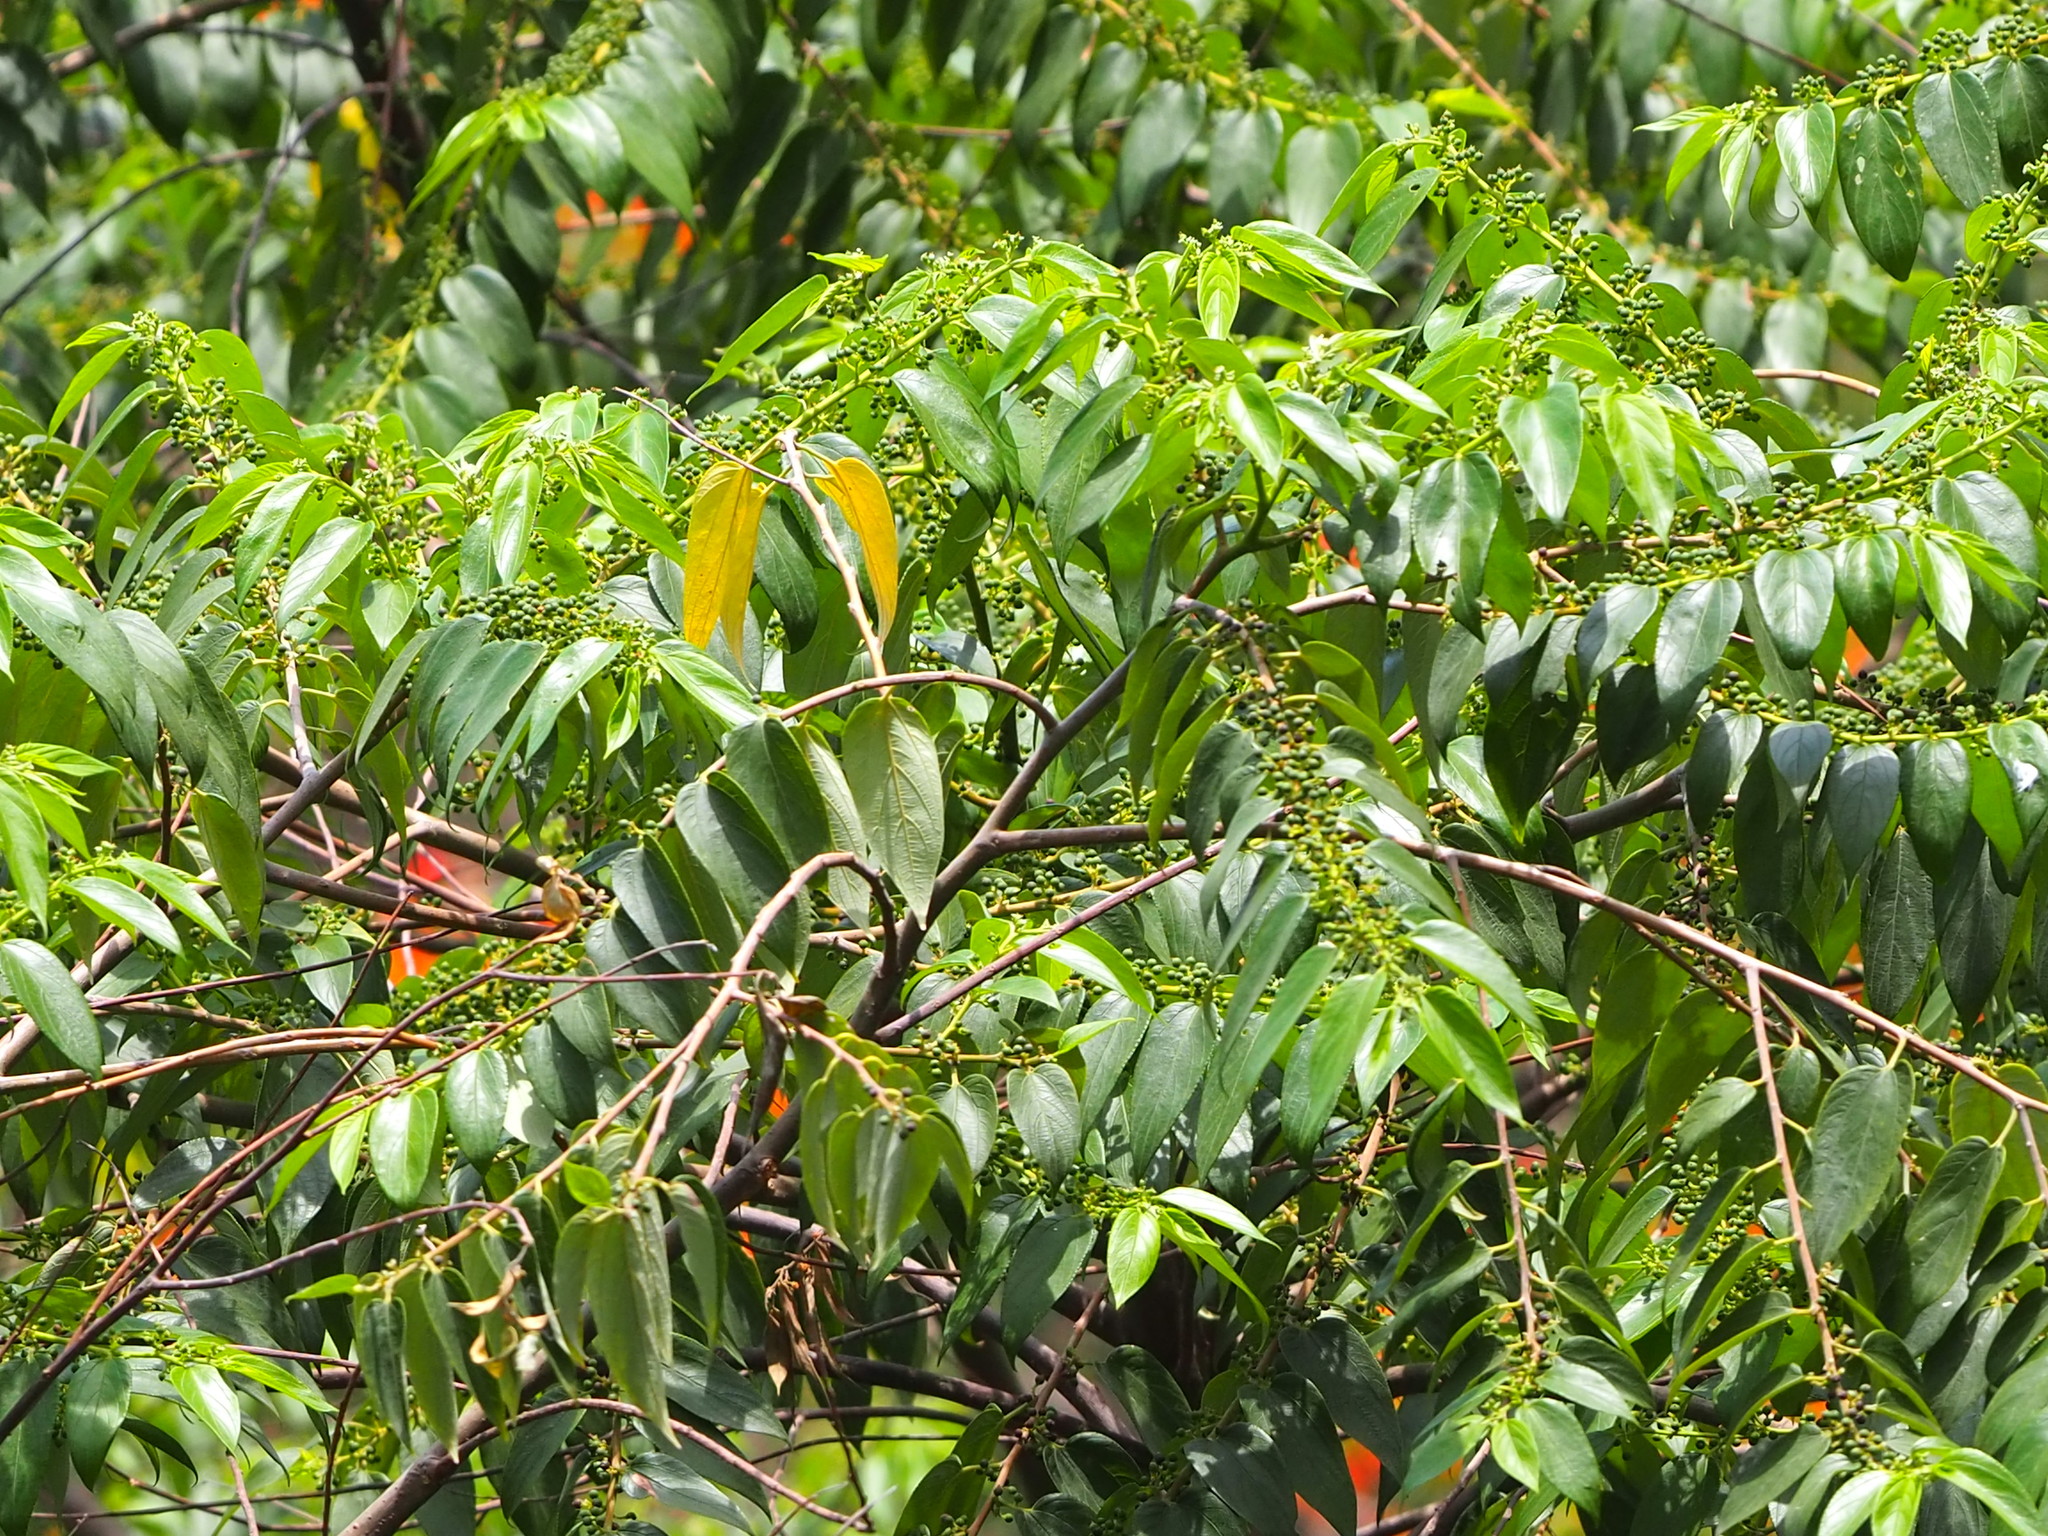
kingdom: Plantae
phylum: Tracheophyta
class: Magnoliopsida
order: Rosales
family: Cannabaceae
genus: Trema
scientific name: Trema orientale
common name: Indian charcoal tree
